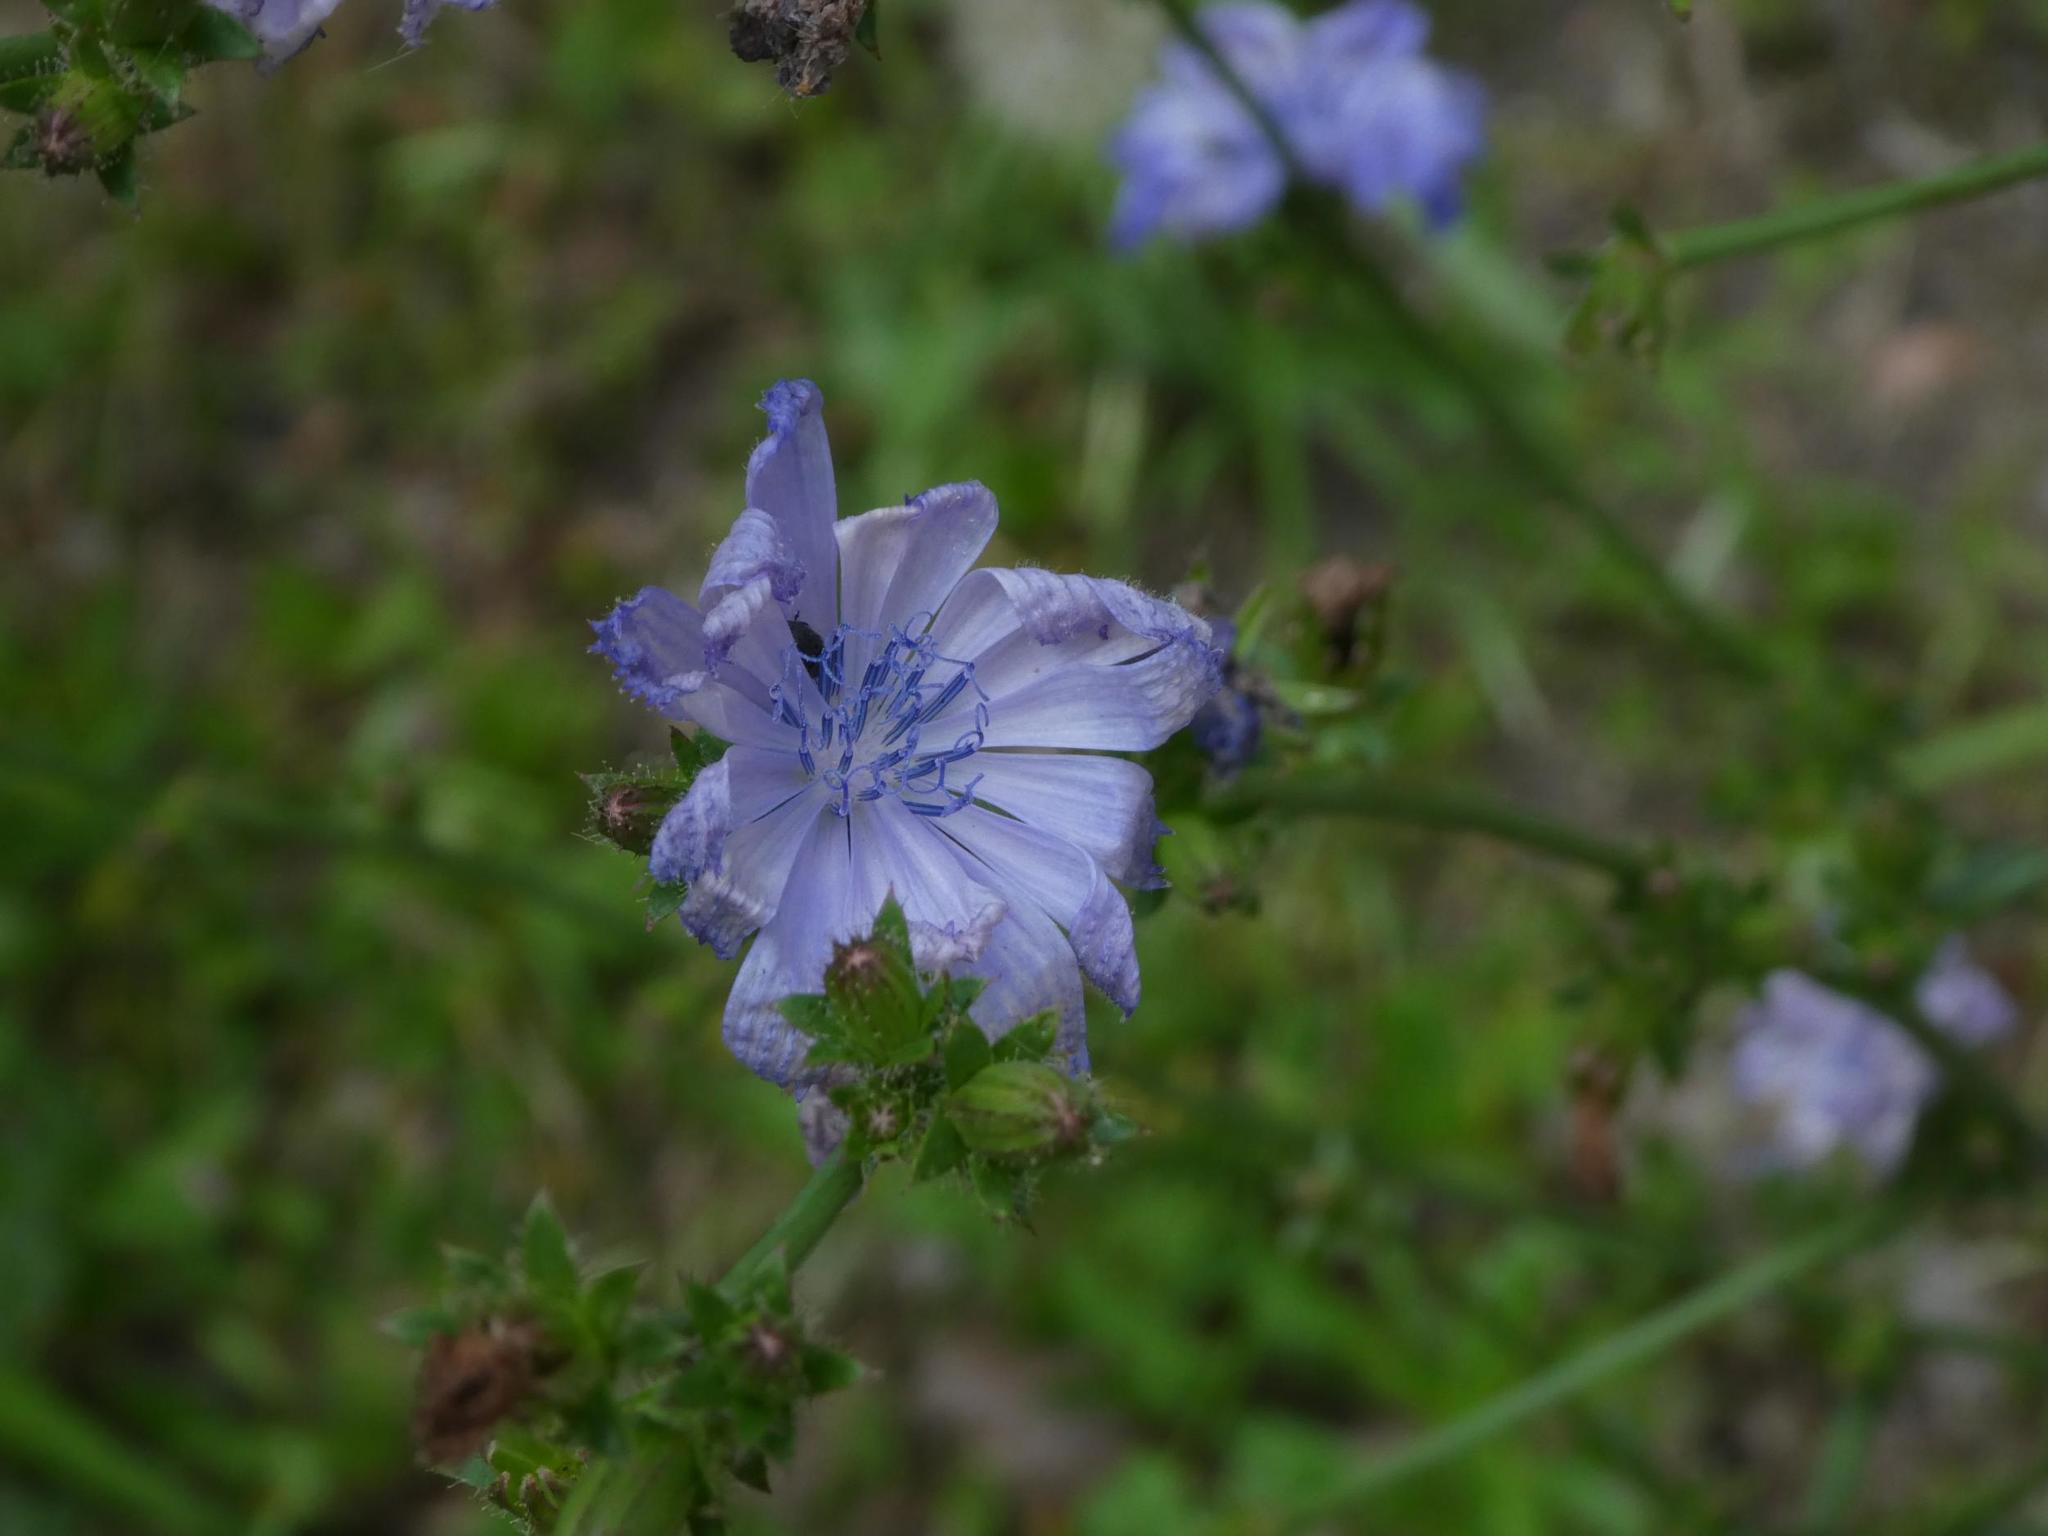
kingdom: Plantae
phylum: Tracheophyta
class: Magnoliopsida
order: Asterales
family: Asteraceae
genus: Cichorium
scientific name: Cichorium intybus
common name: Chicory
